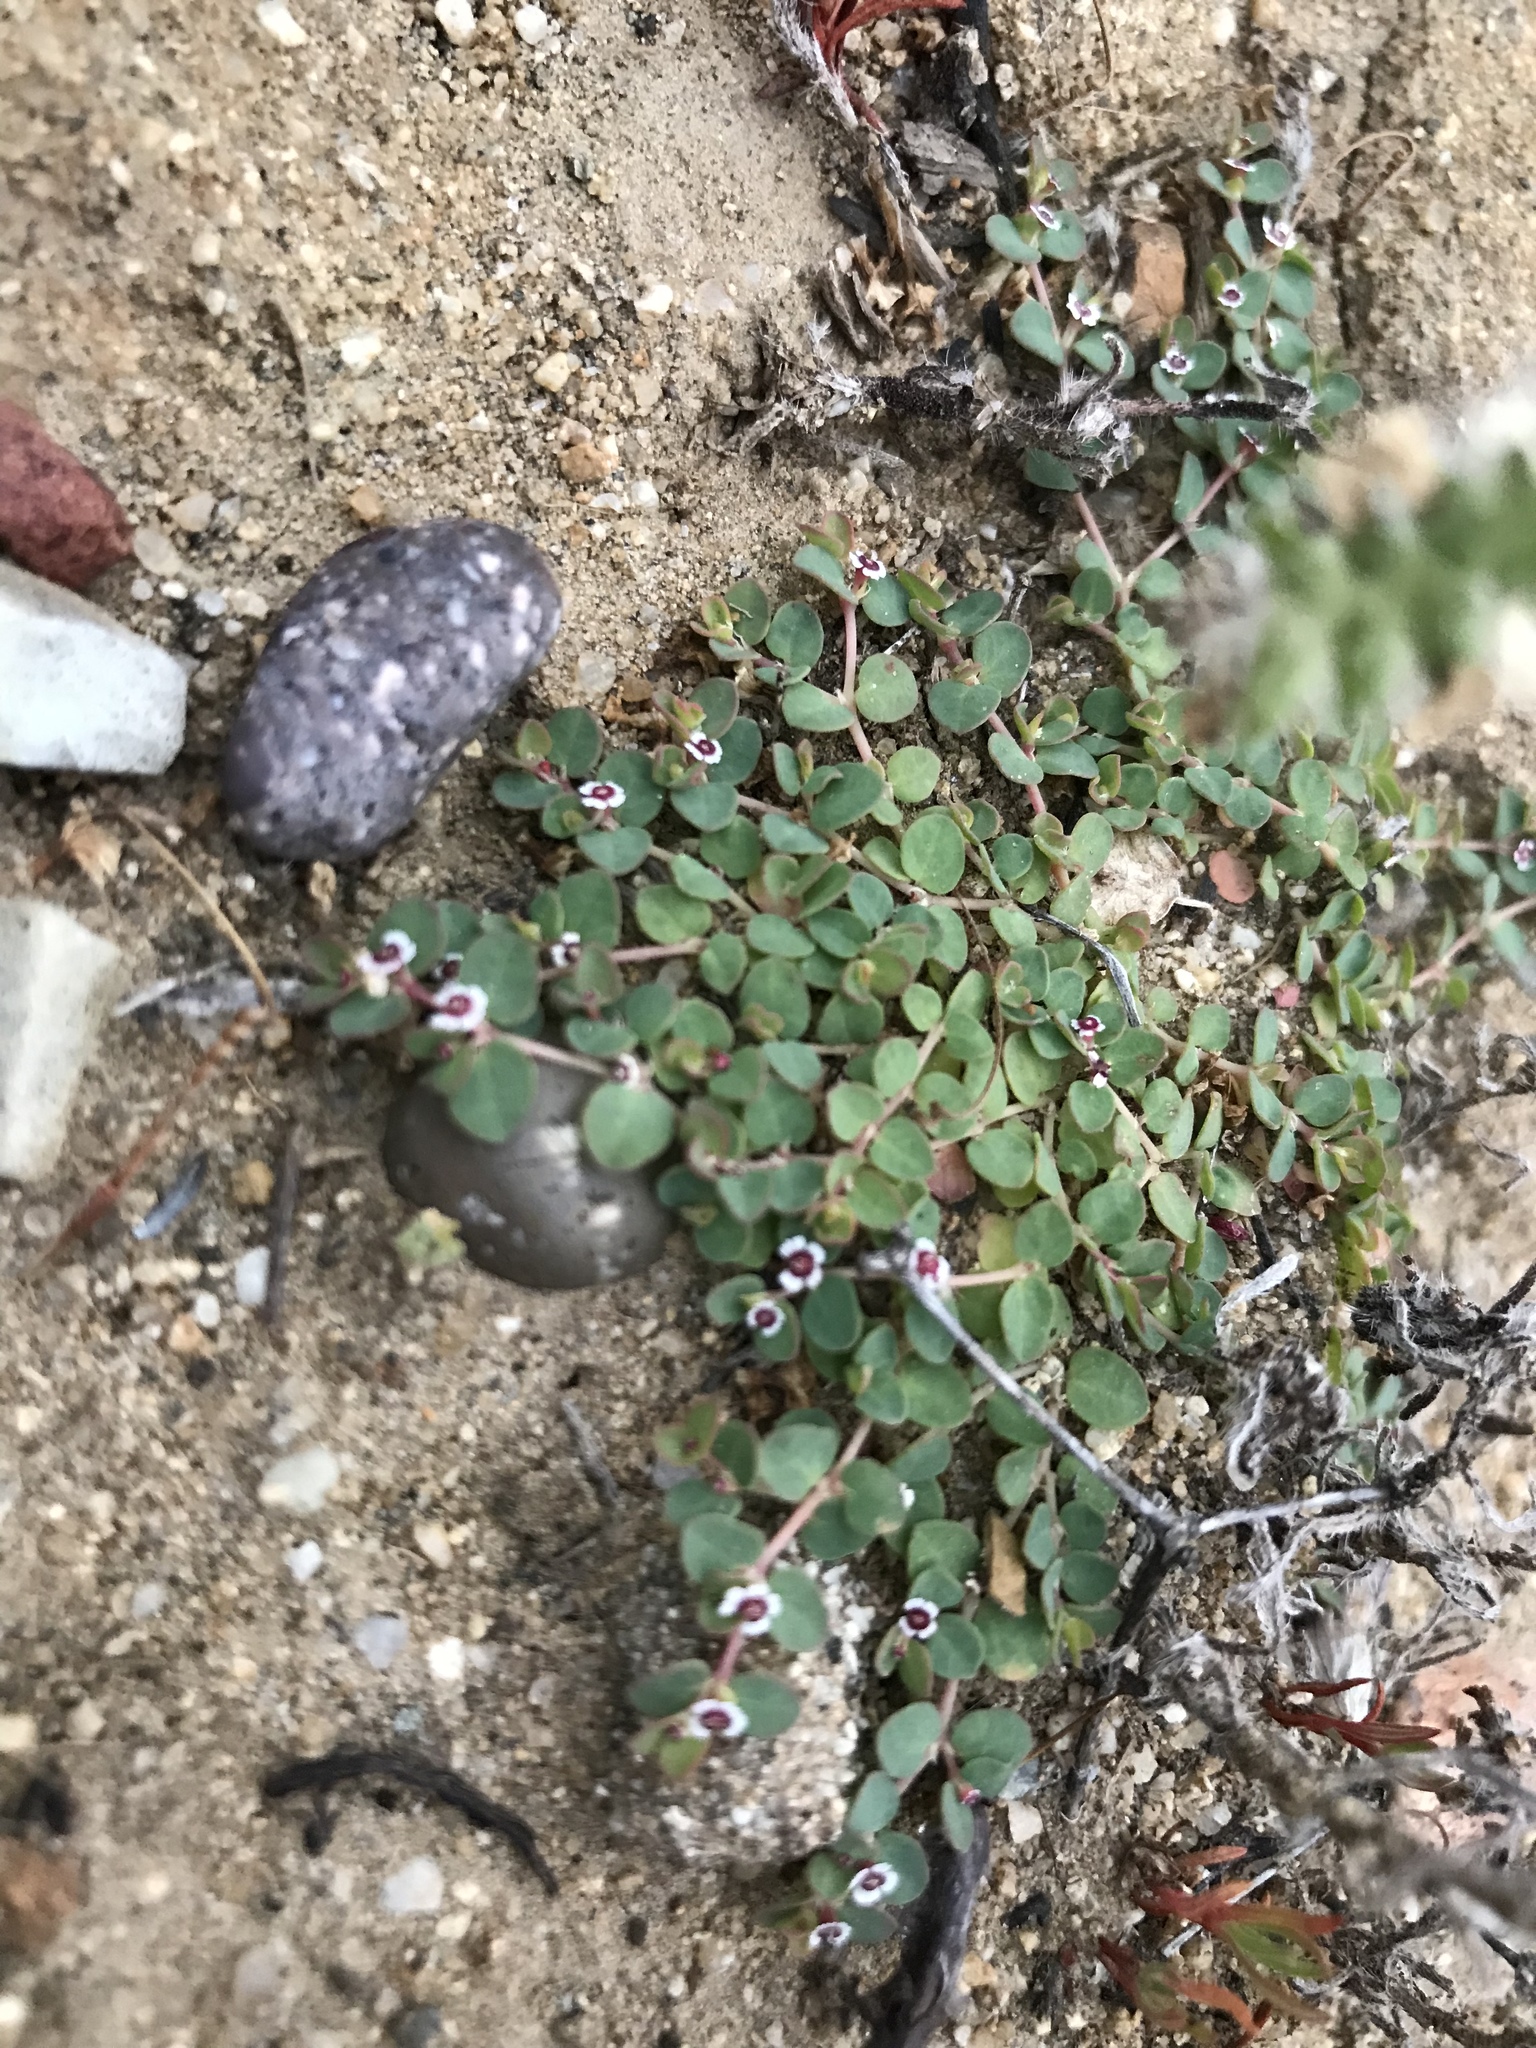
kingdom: Plantae
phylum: Tracheophyta
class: Magnoliopsida
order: Malpighiales
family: Euphorbiaceae
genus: Euphorbia
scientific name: Euphorbia polycarpa
